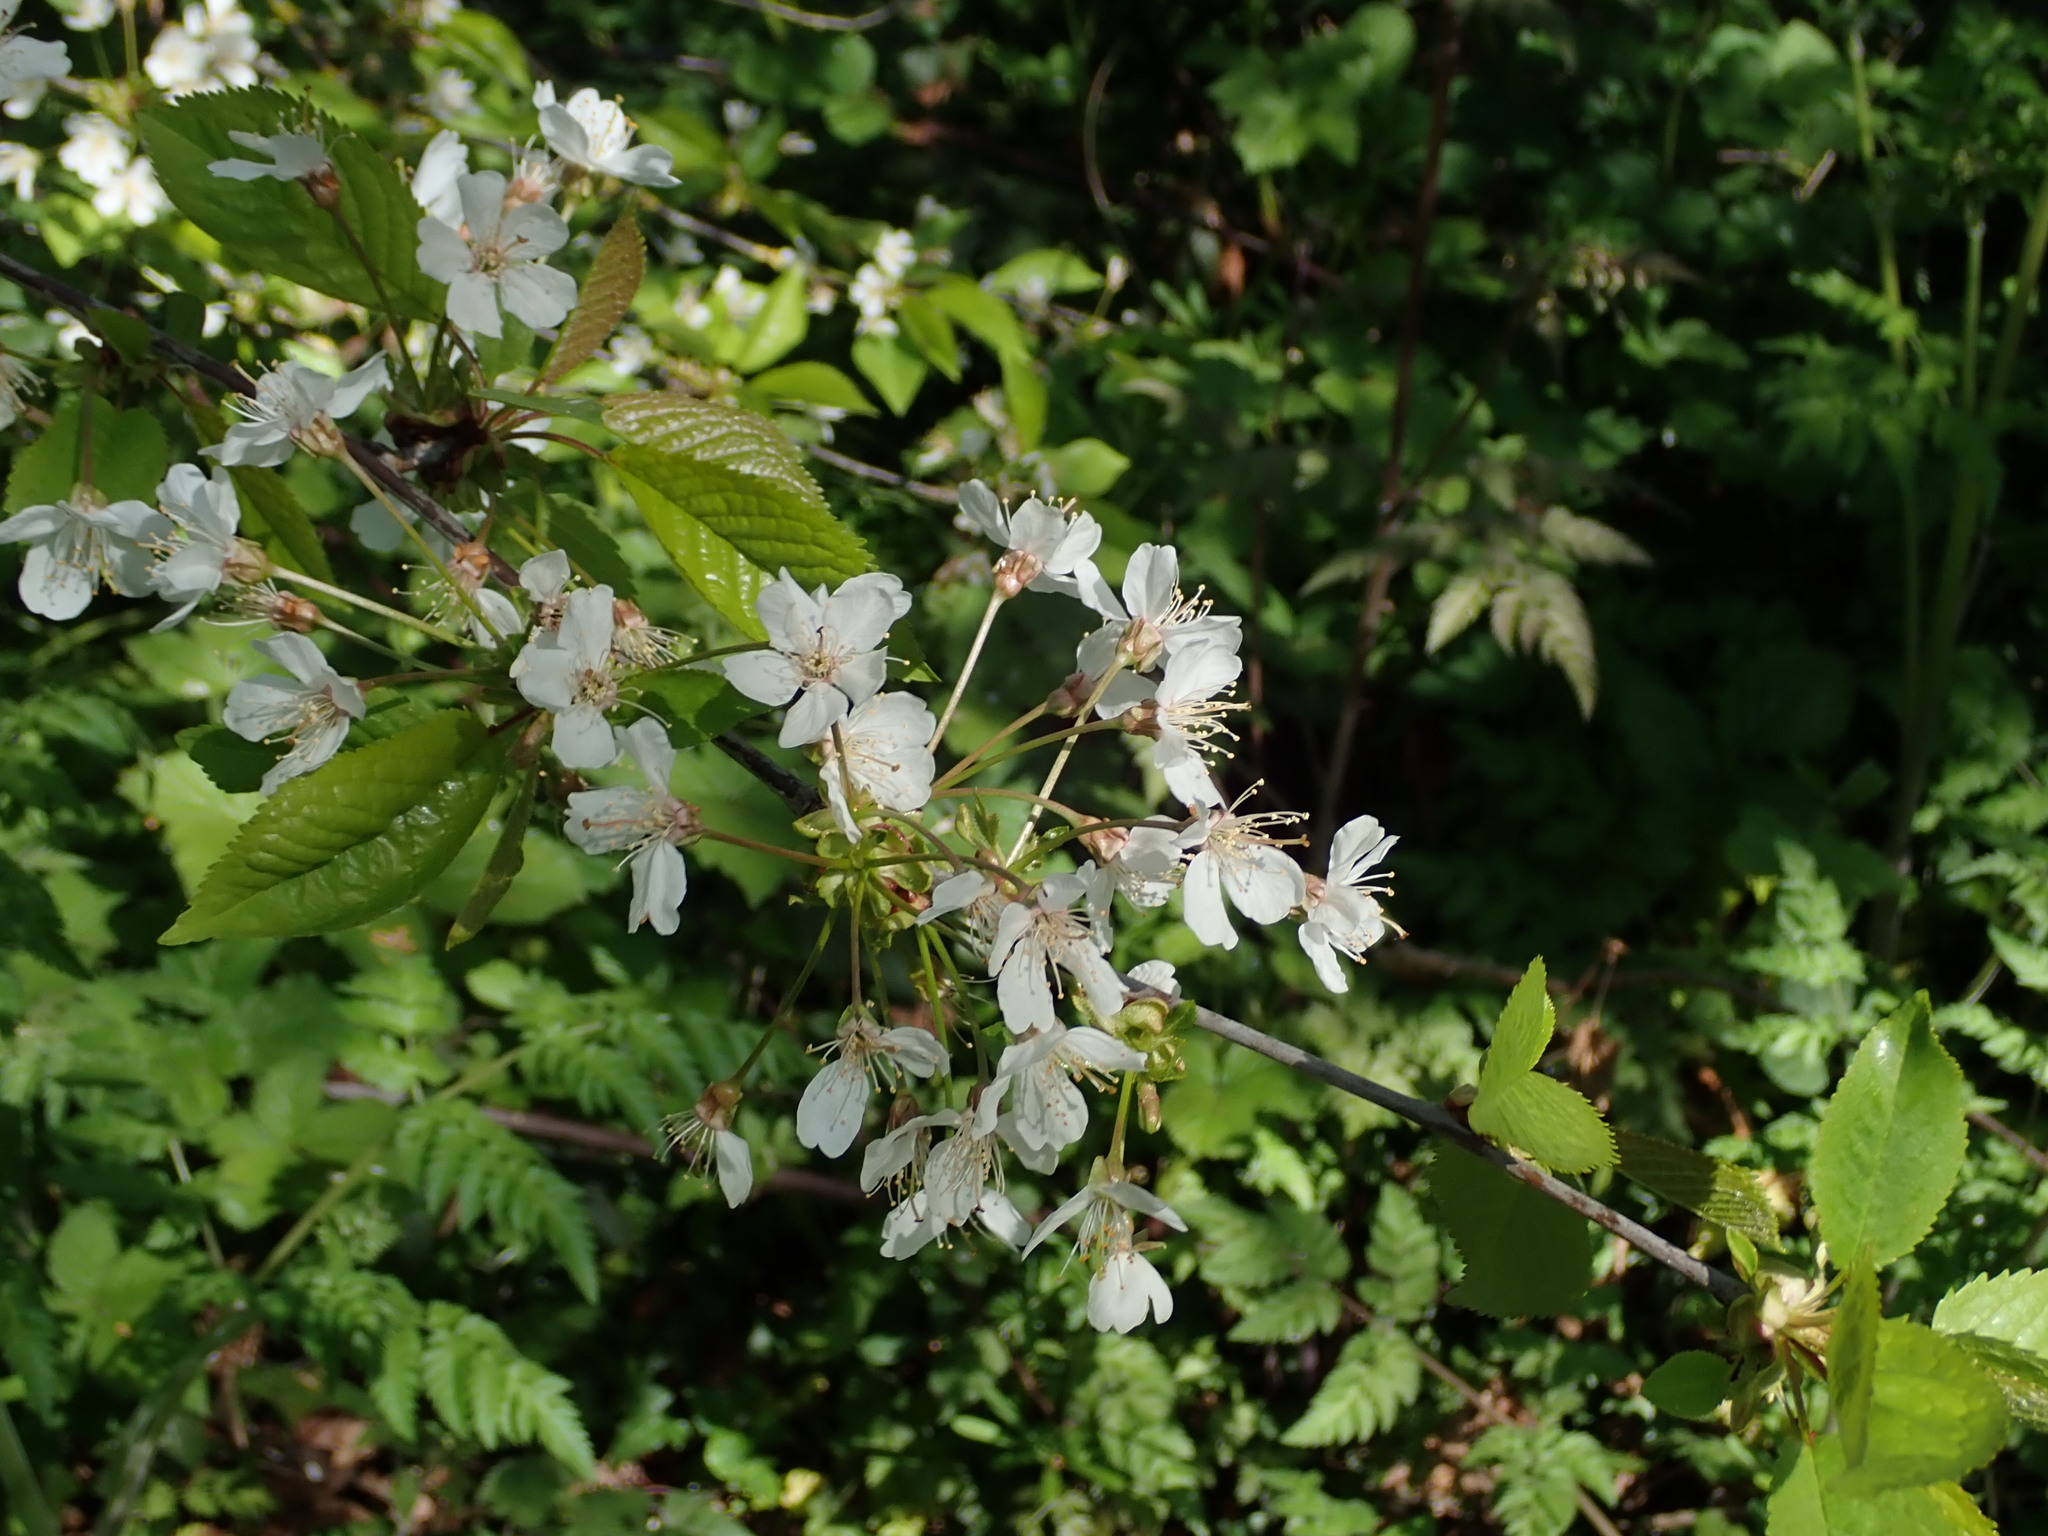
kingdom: Plantae
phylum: Tracheophyta
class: Magnoliopsida
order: Rosales
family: Rosaceae
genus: Prunus
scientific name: Prunus avium
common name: Sweet cherry
